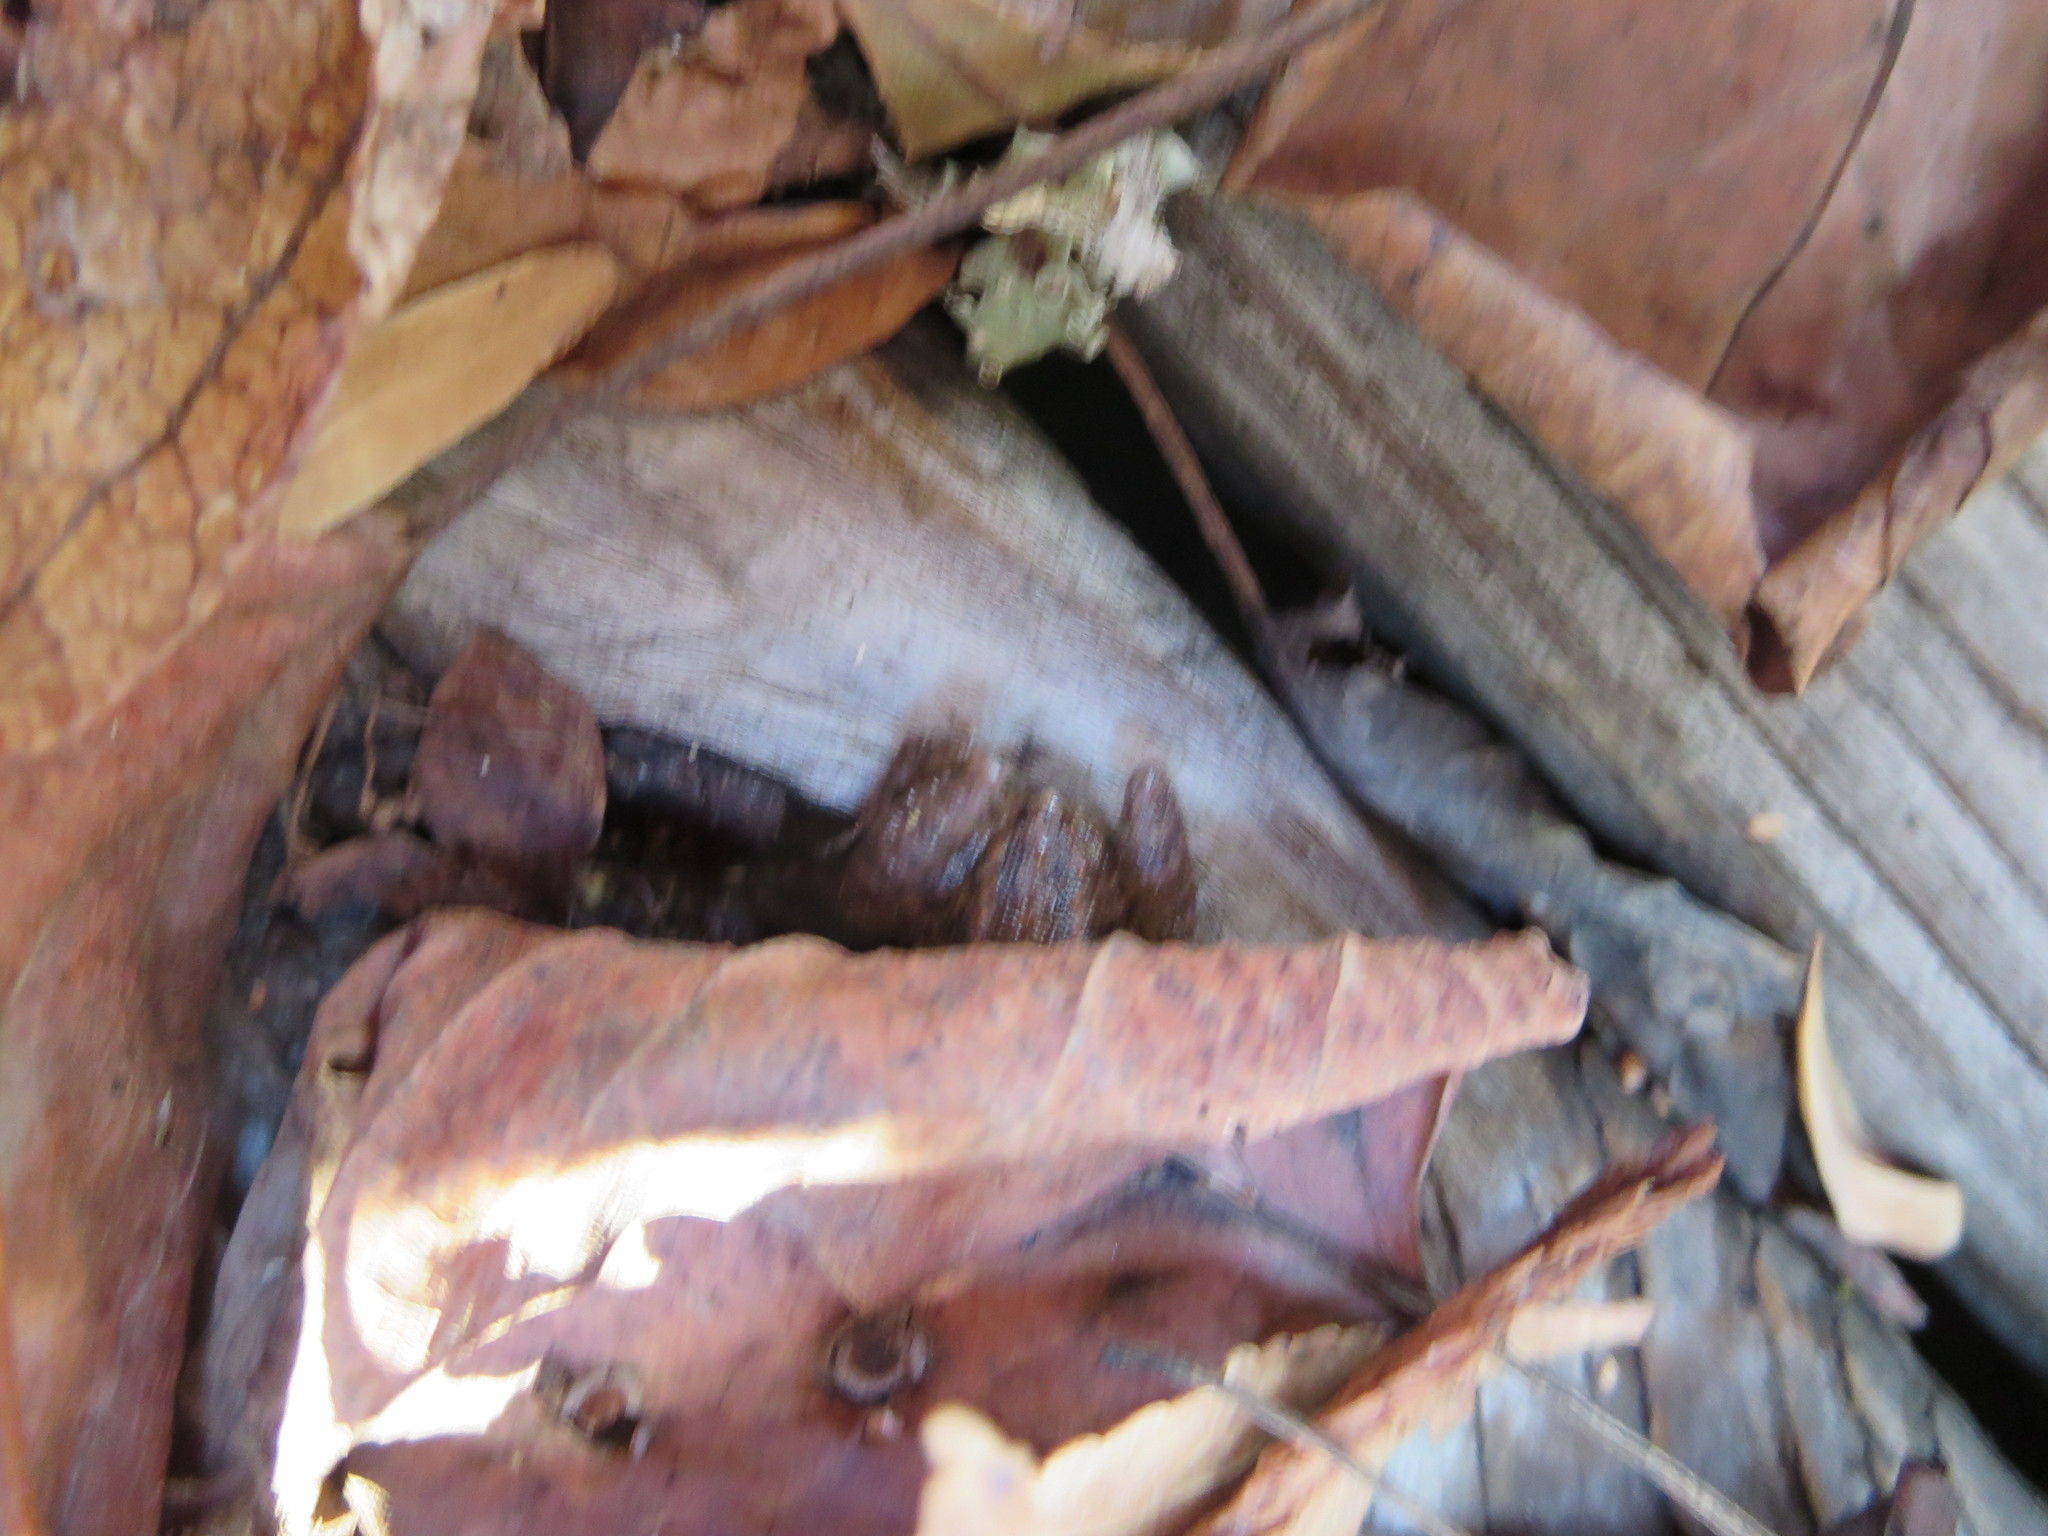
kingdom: Animalia
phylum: Chordata
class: Amphibia
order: Anura
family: Eleutherodactylidae
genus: Eleutherodactylus
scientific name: Eleutherodactylus planirostris
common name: Greenhouse frog
